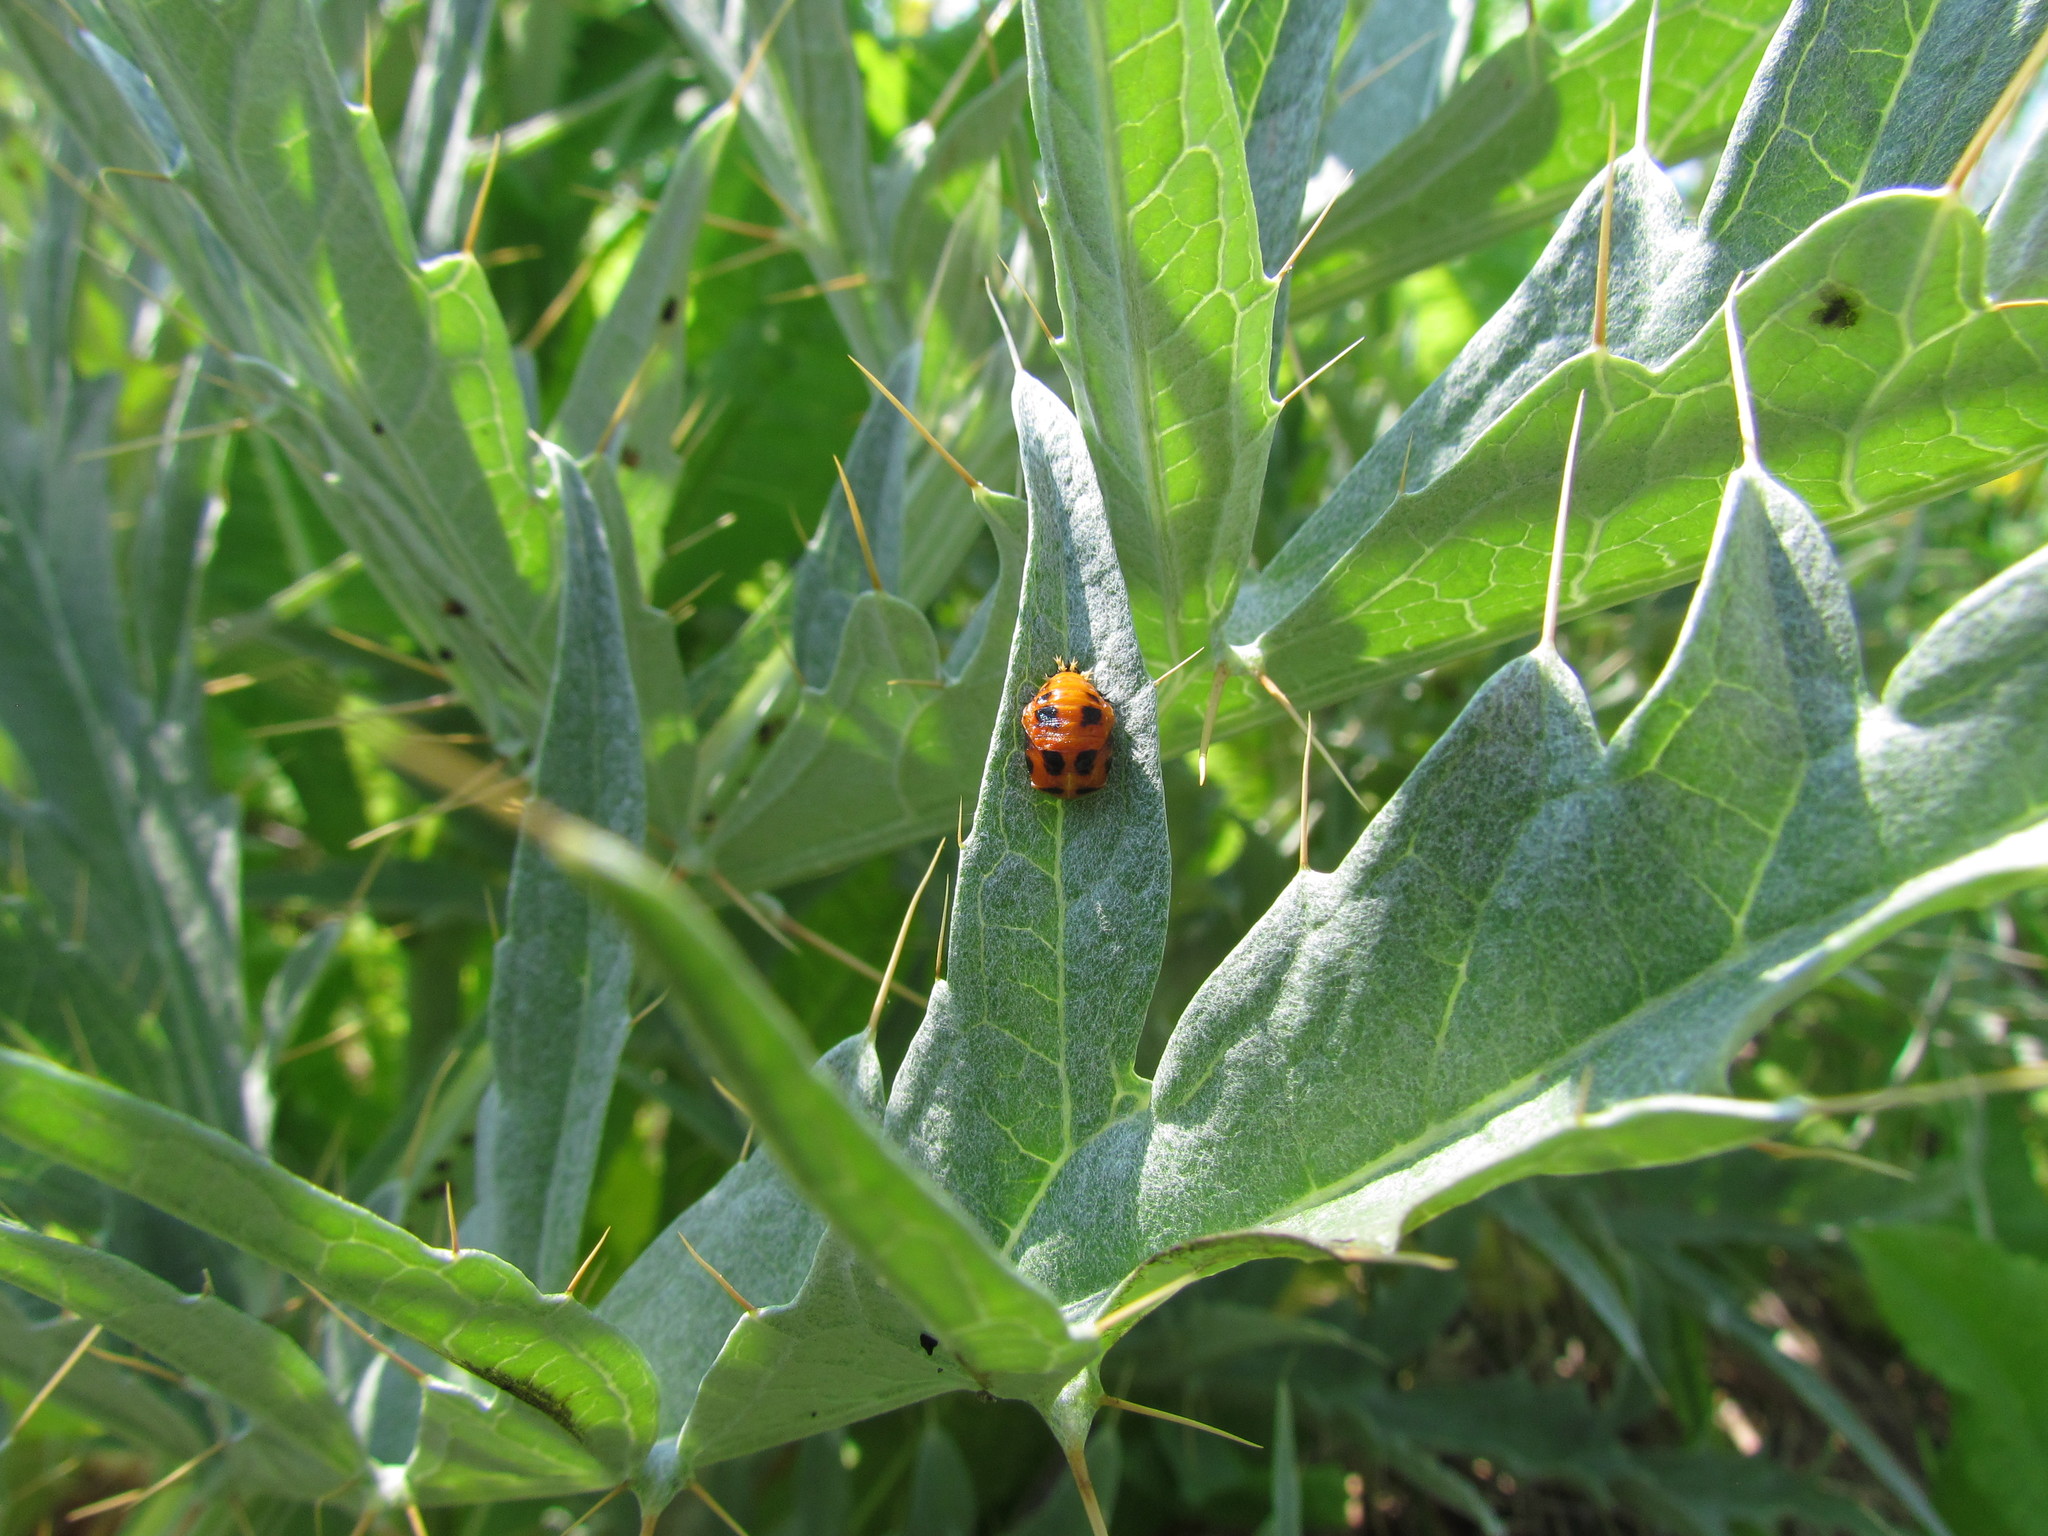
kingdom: Animalia
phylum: Arthropoda
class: Insecta
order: Coleoptera
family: Coccinellidae
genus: Harmonia
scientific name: Harmonia axyridis
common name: Harlequin ladybird
